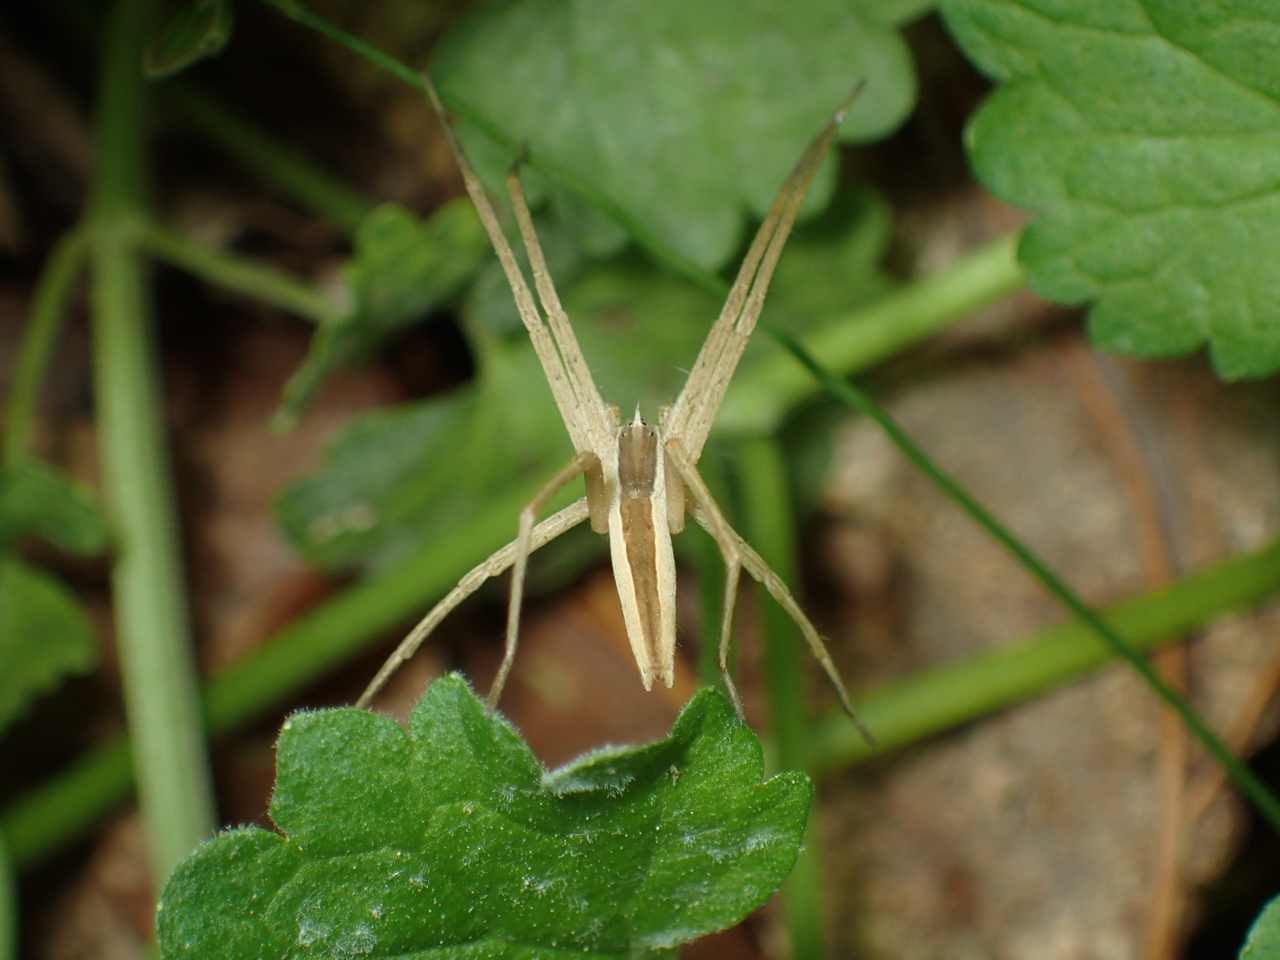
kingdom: Animalia
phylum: Arthropoda
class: Arachnida
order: Araneae
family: Pisauridae
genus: Pisaurina
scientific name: Pisaurina dubia
